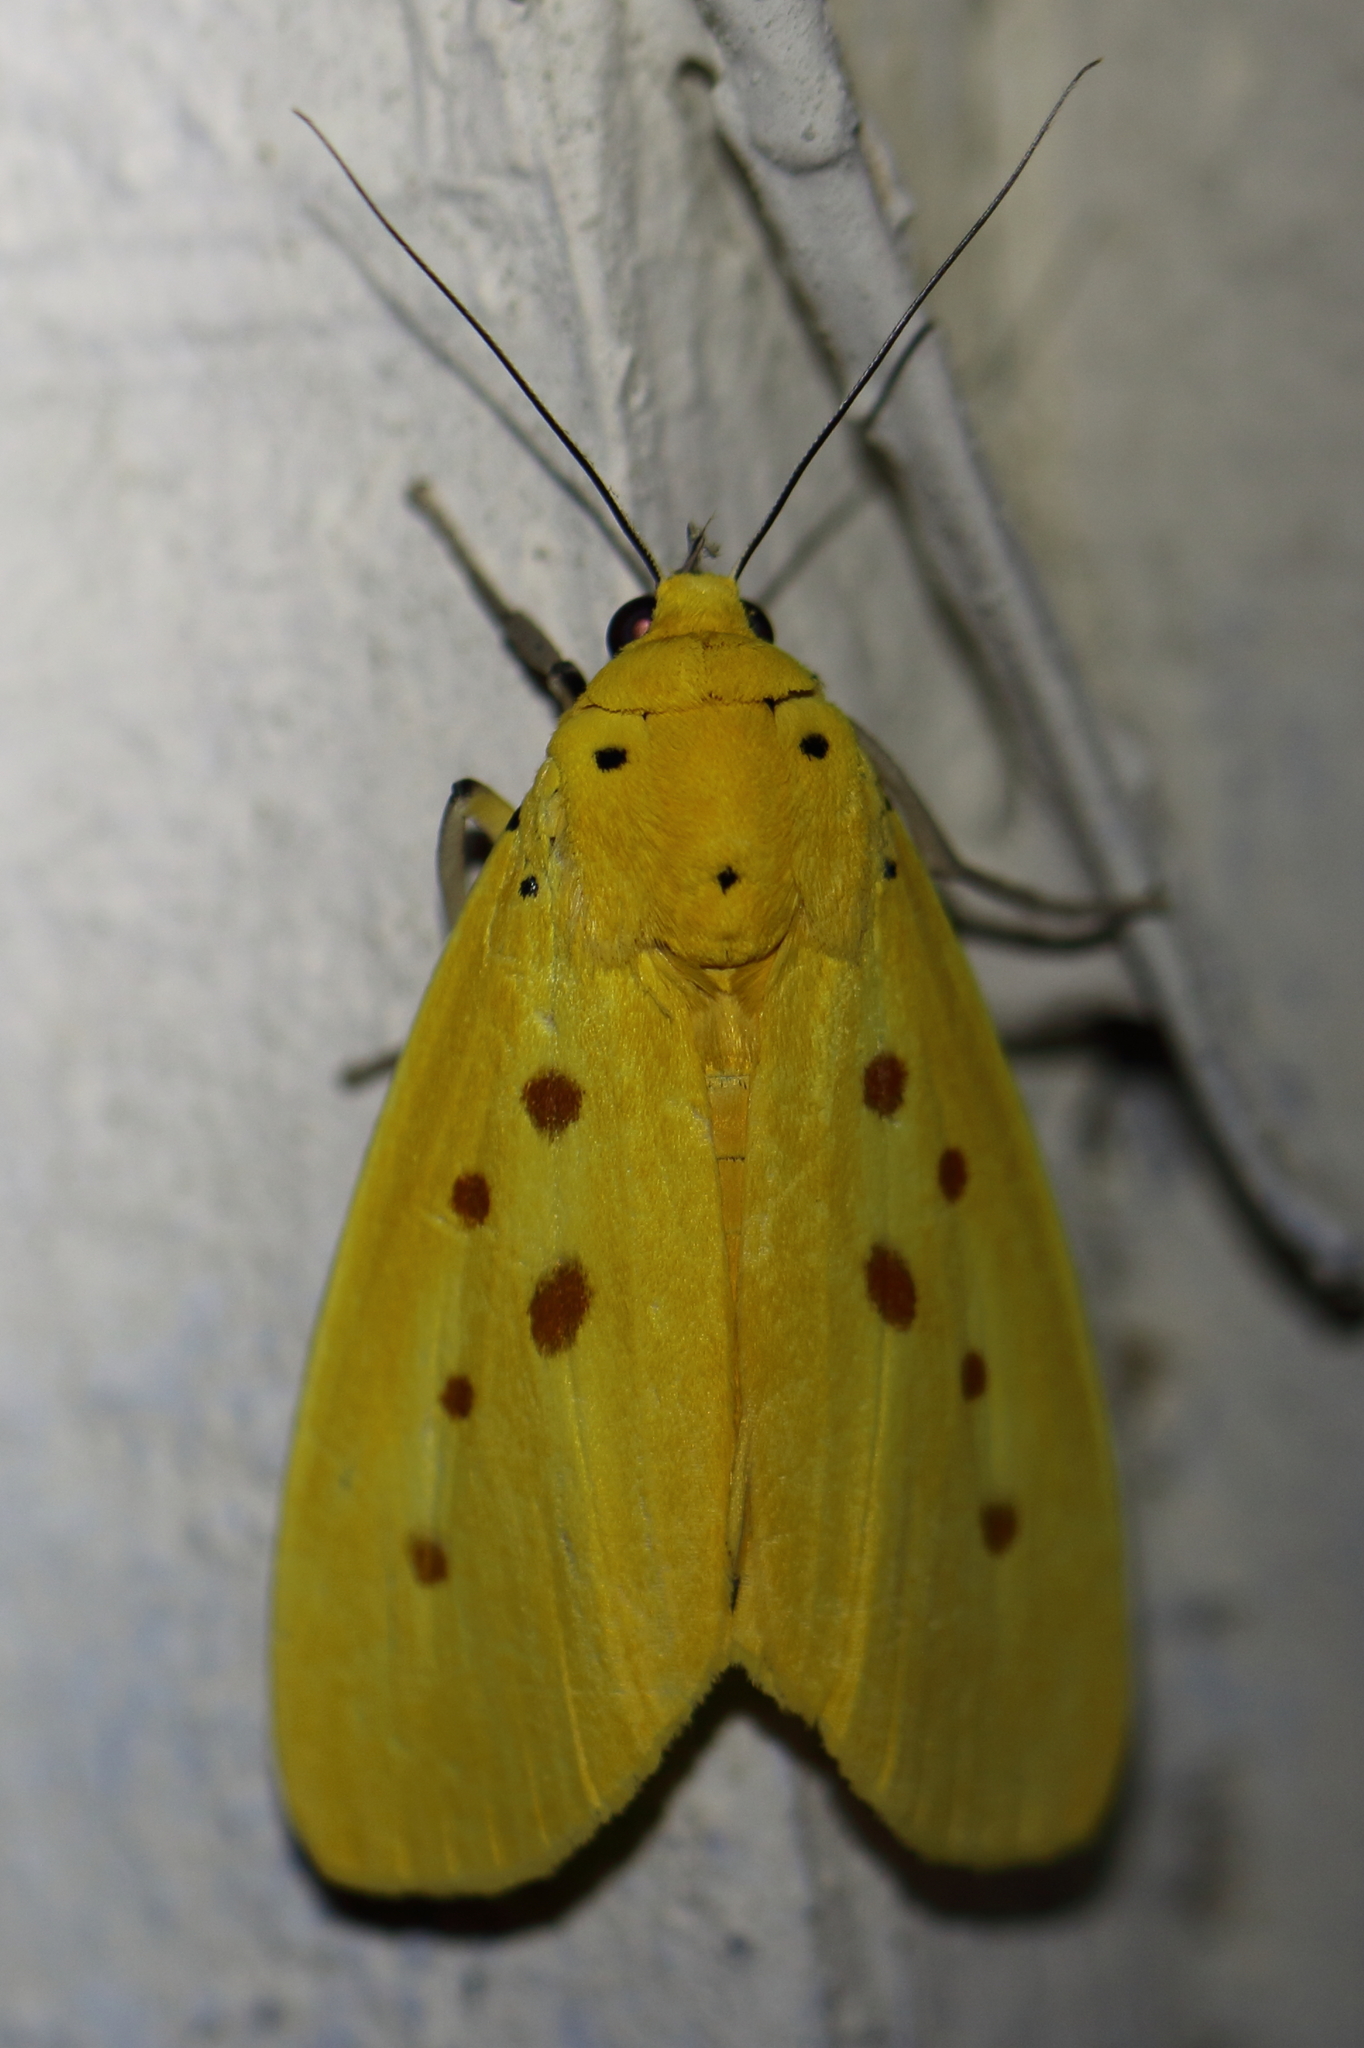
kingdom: Animalia
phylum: Arthropoda
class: Insecta
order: Lepidoptera
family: Noctuidae
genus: Agape
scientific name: Agape chloropyga
